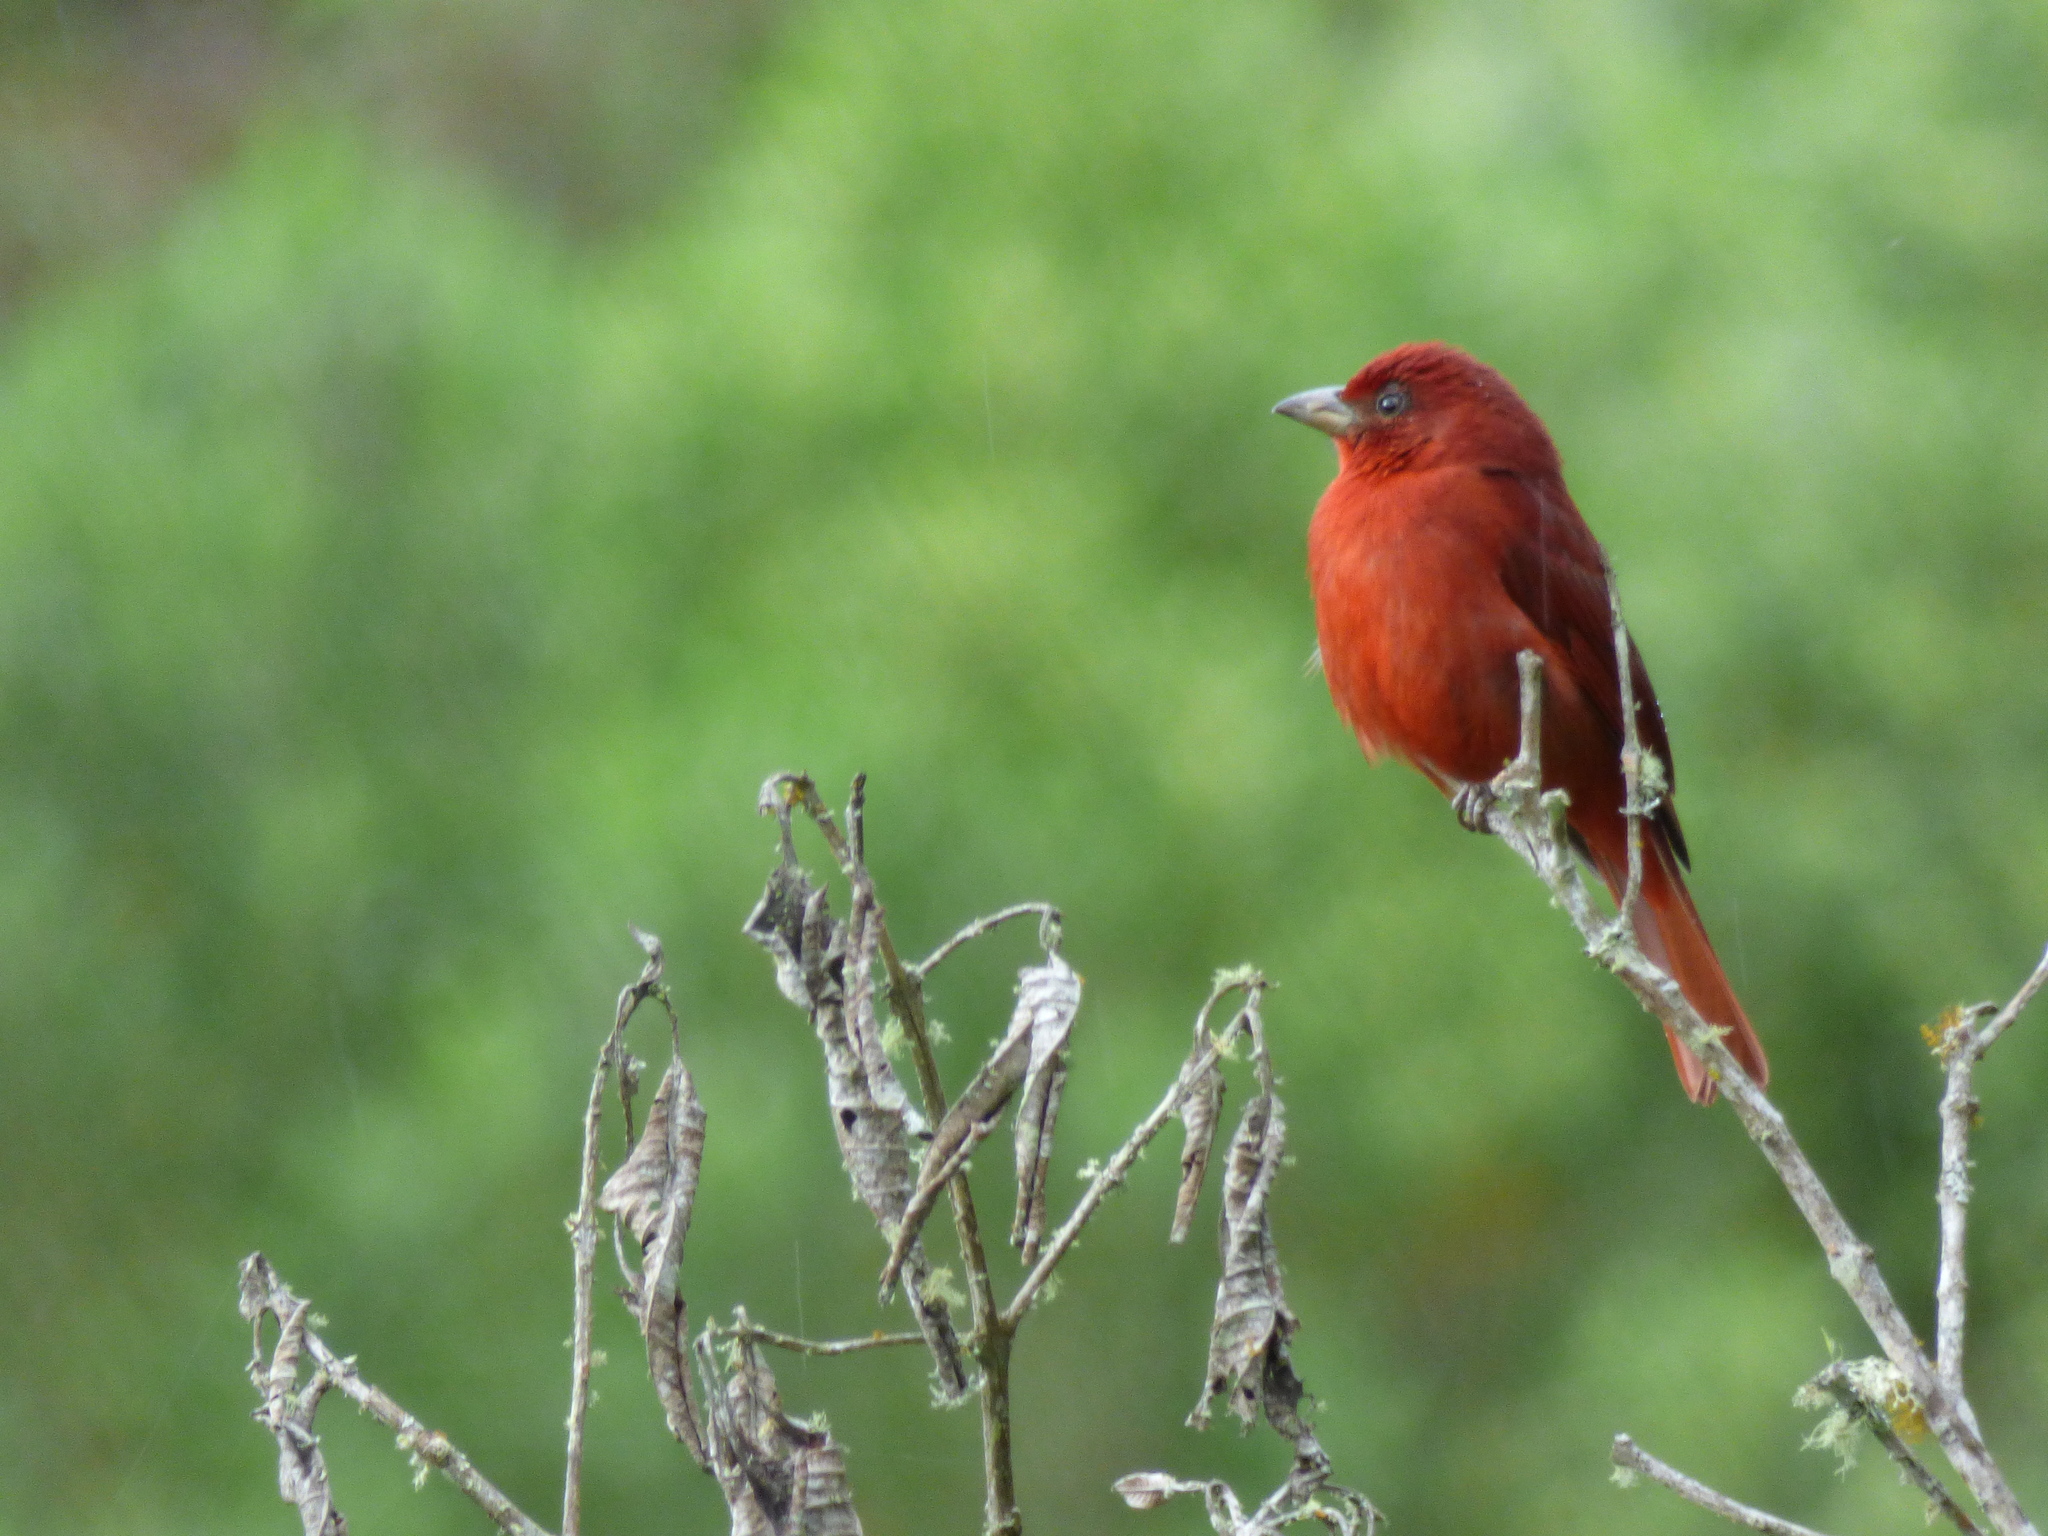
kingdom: Animalia
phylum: Chordata
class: Aves
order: Passeriformes
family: Cardinalidae
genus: Piranga
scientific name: Piranga flava
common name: Red tanager
